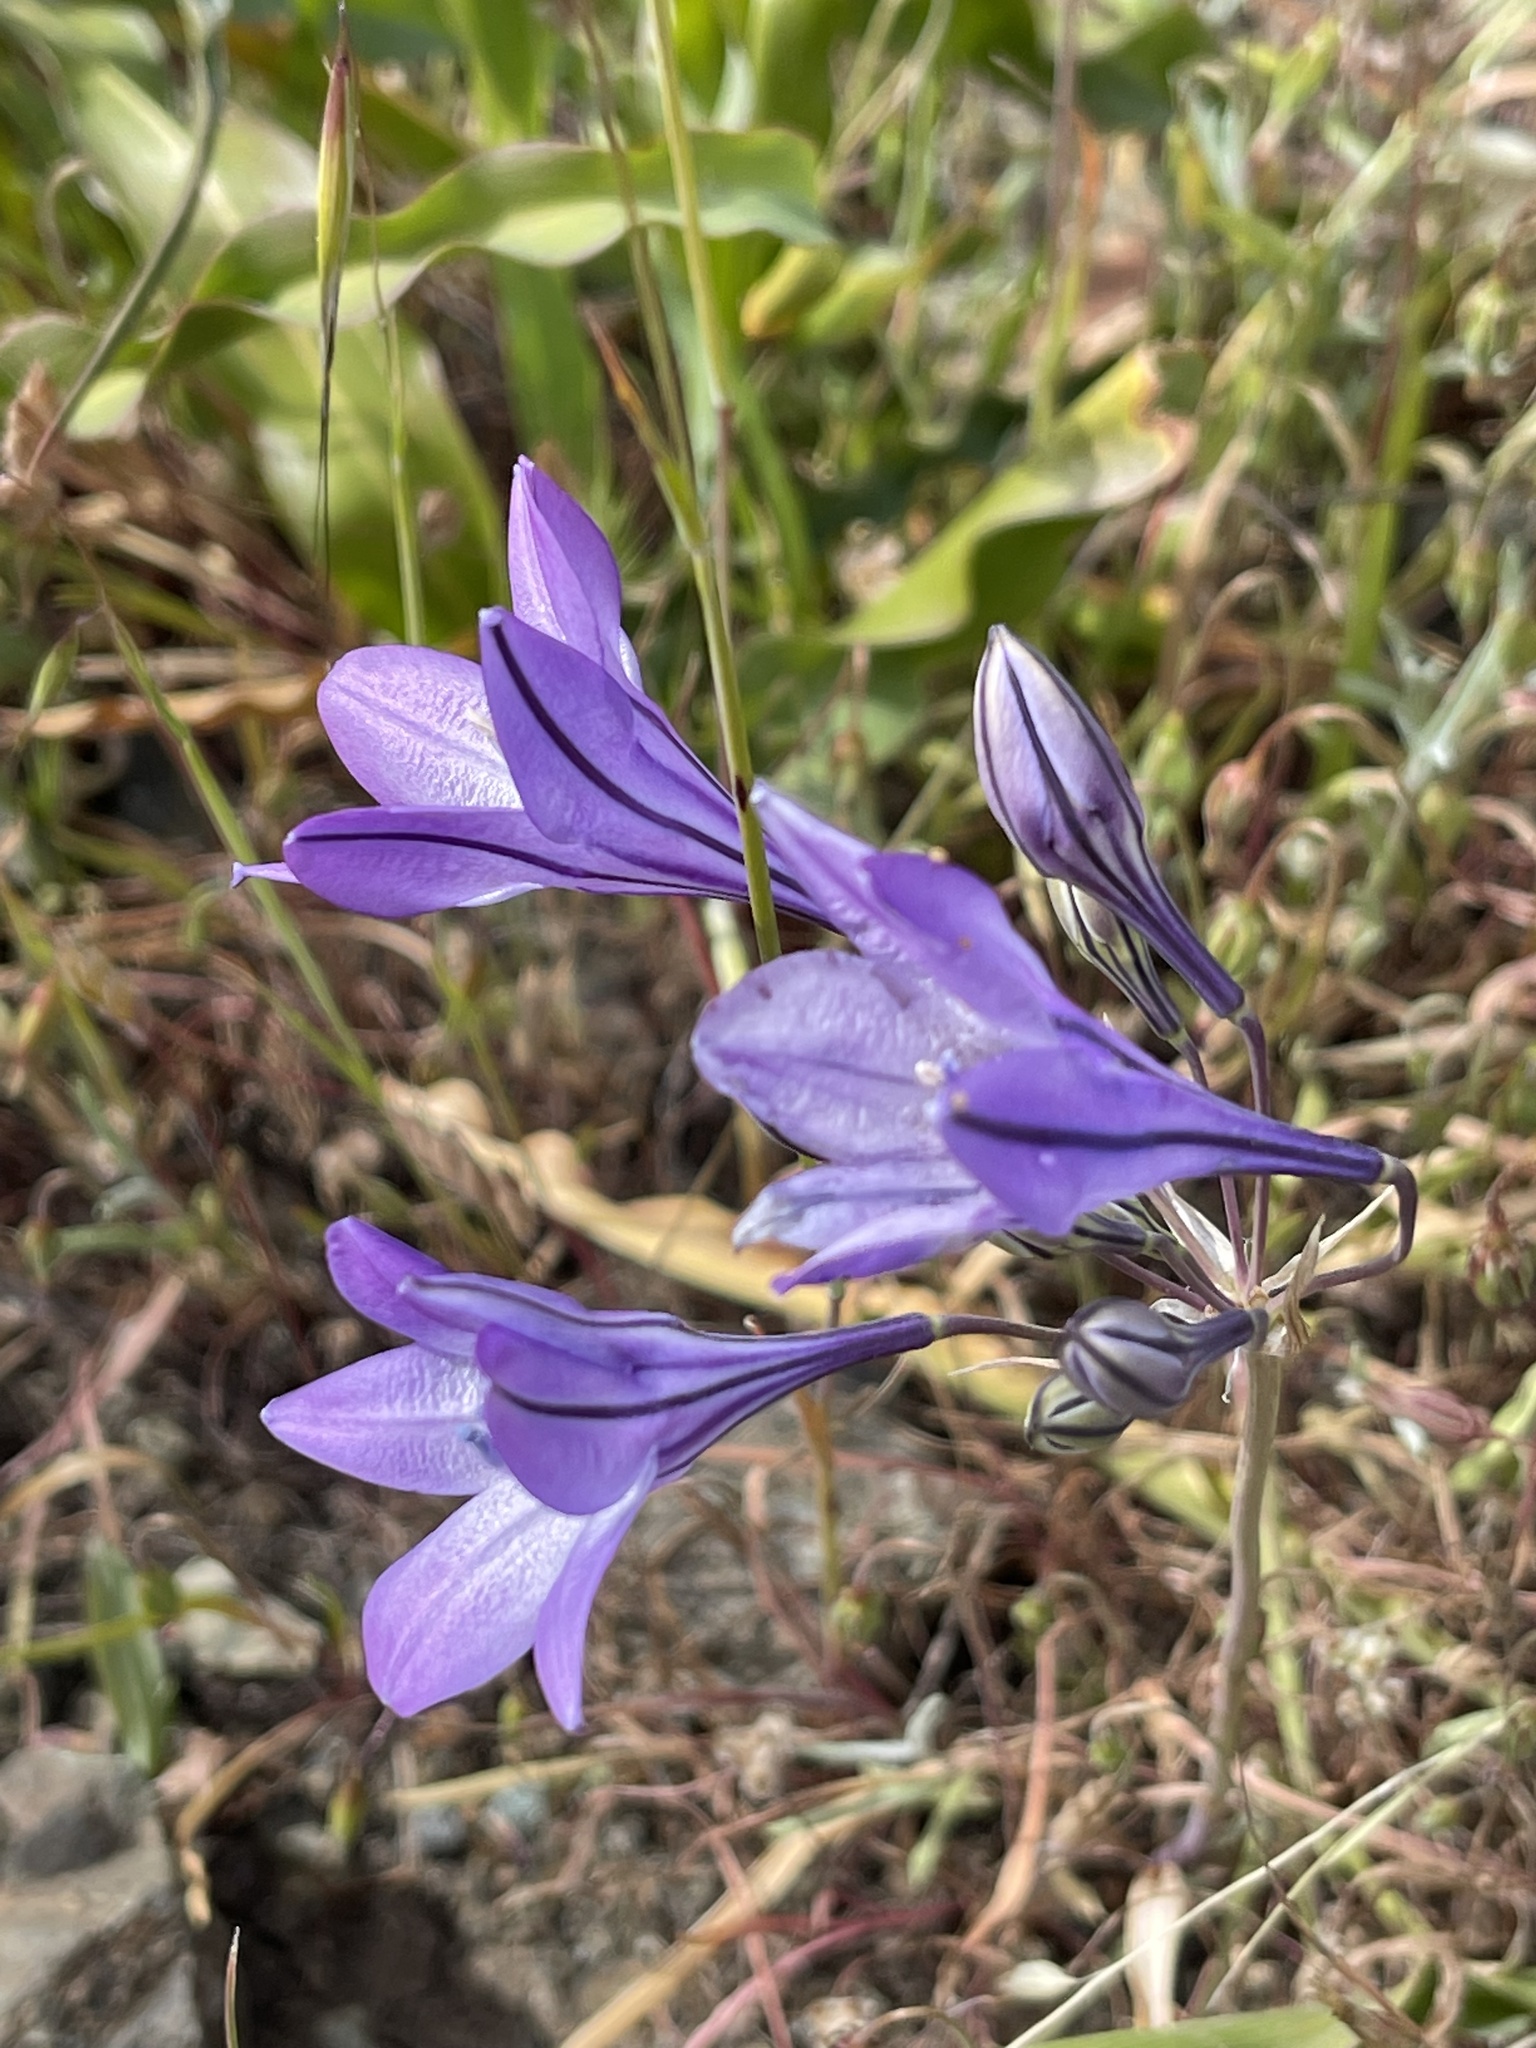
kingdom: Plantae
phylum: Tracheophyta
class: Liliopsida
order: Asparagales
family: Asparagaceae
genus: Triteleia
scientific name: Triteleia laxa
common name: Triplet-lily
